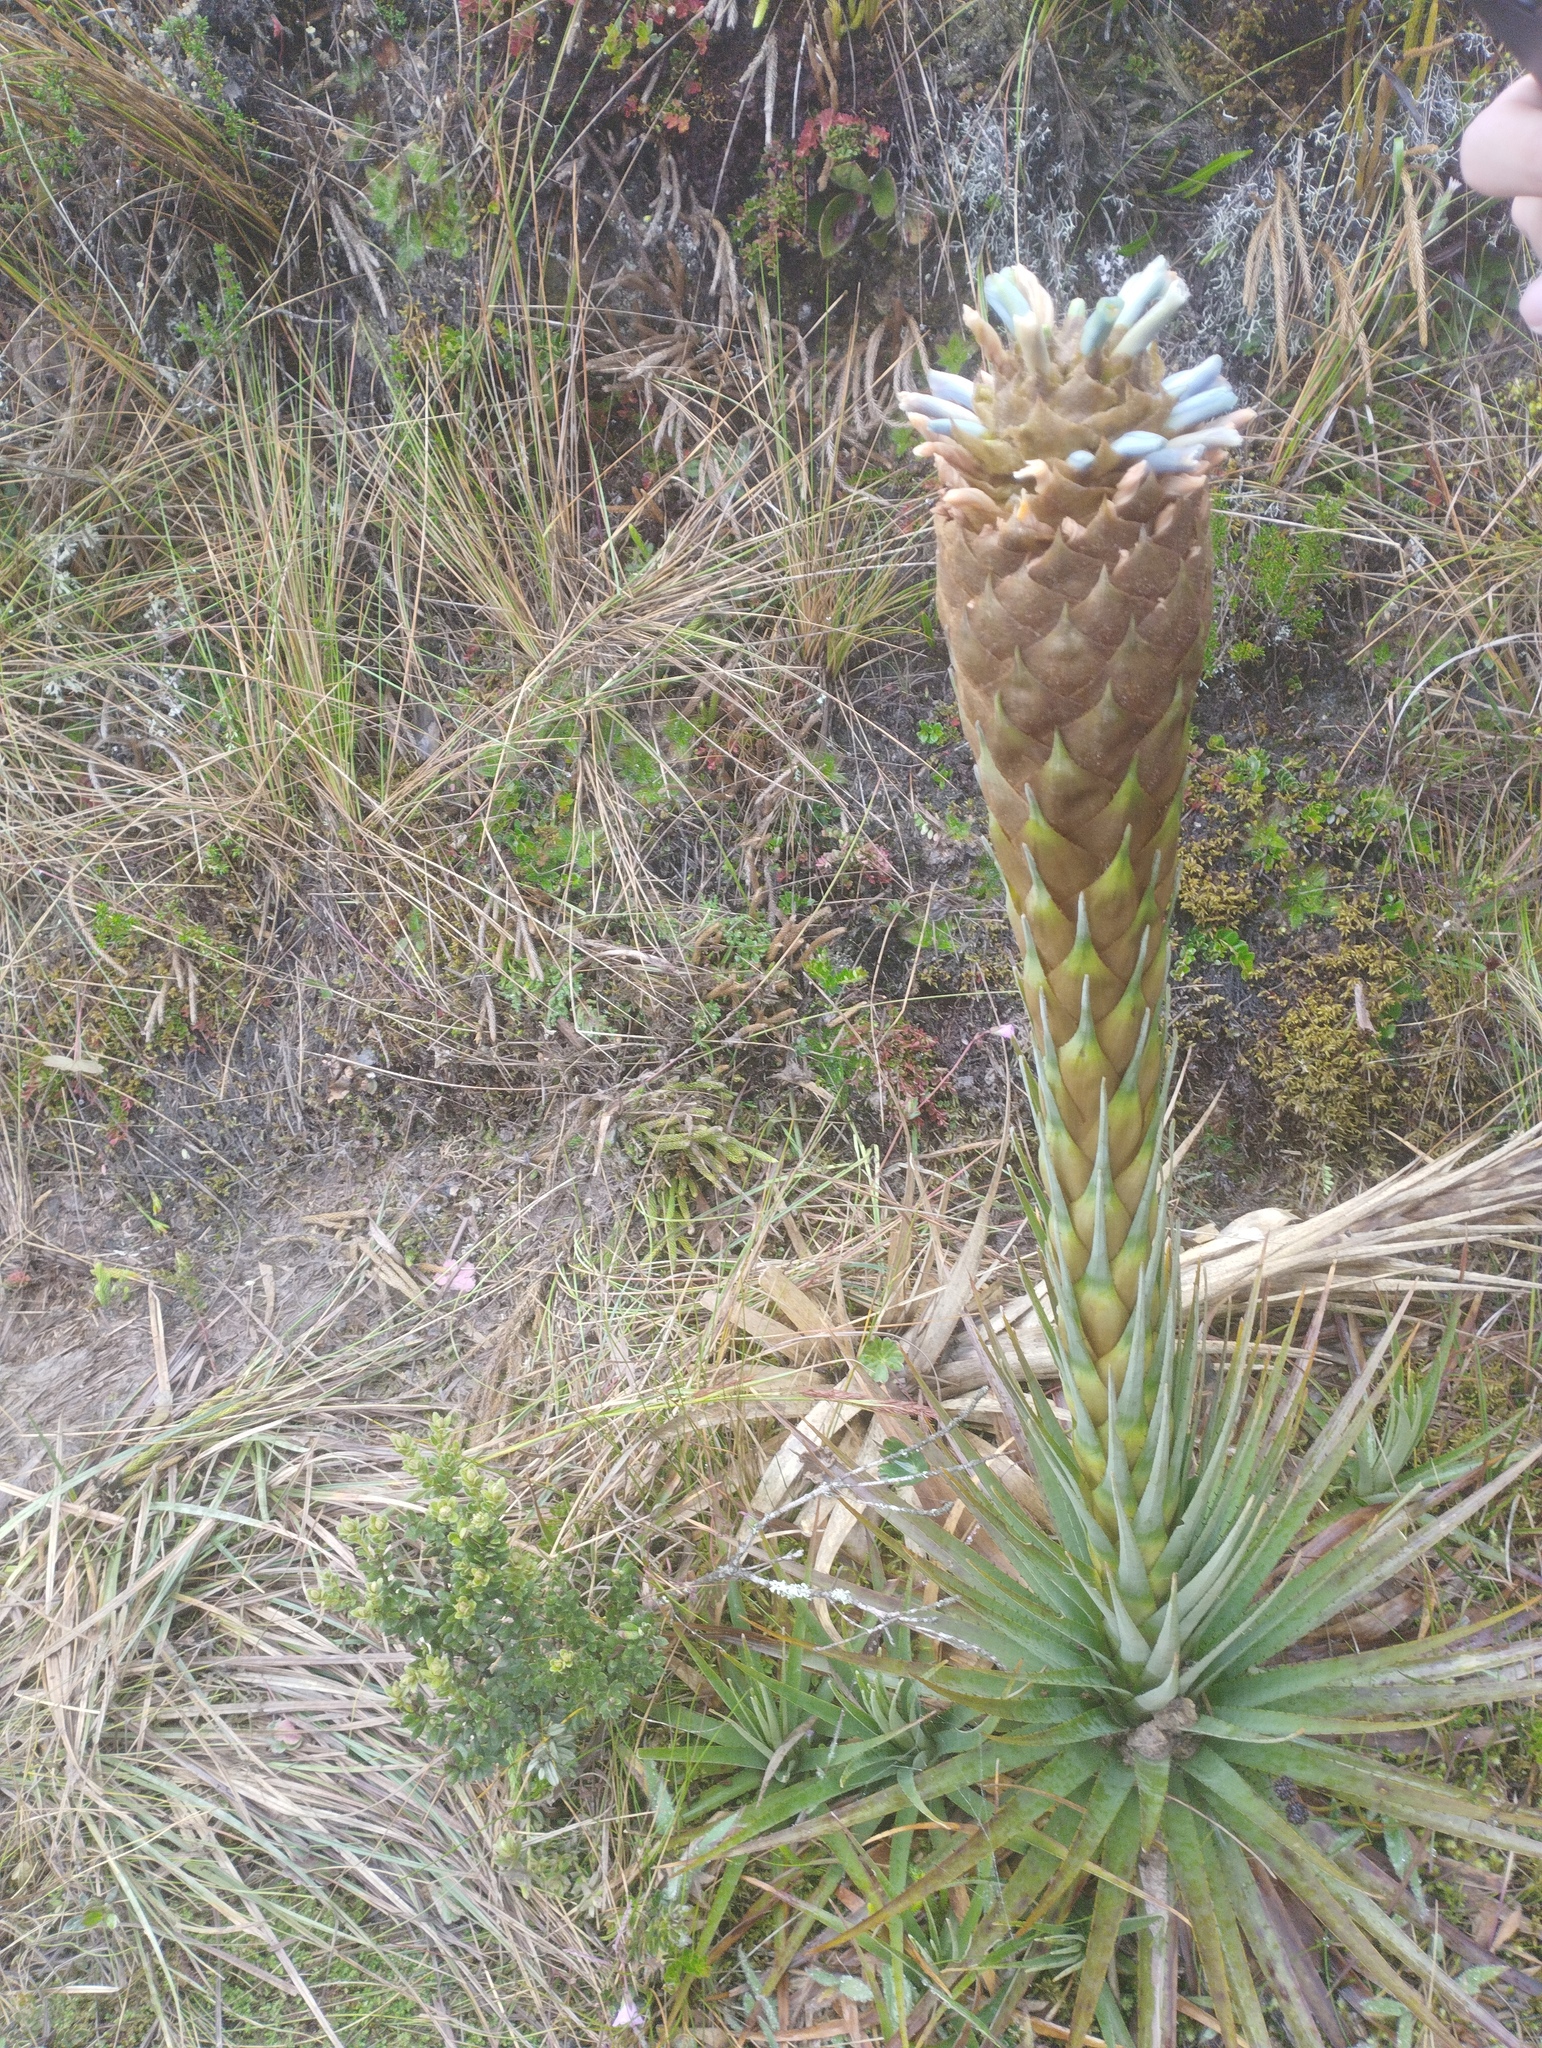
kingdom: Plantae
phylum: Tracheophyta
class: Liliopsida
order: Poales
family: Bromeliaceae
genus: Puya
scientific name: Puya santosii
